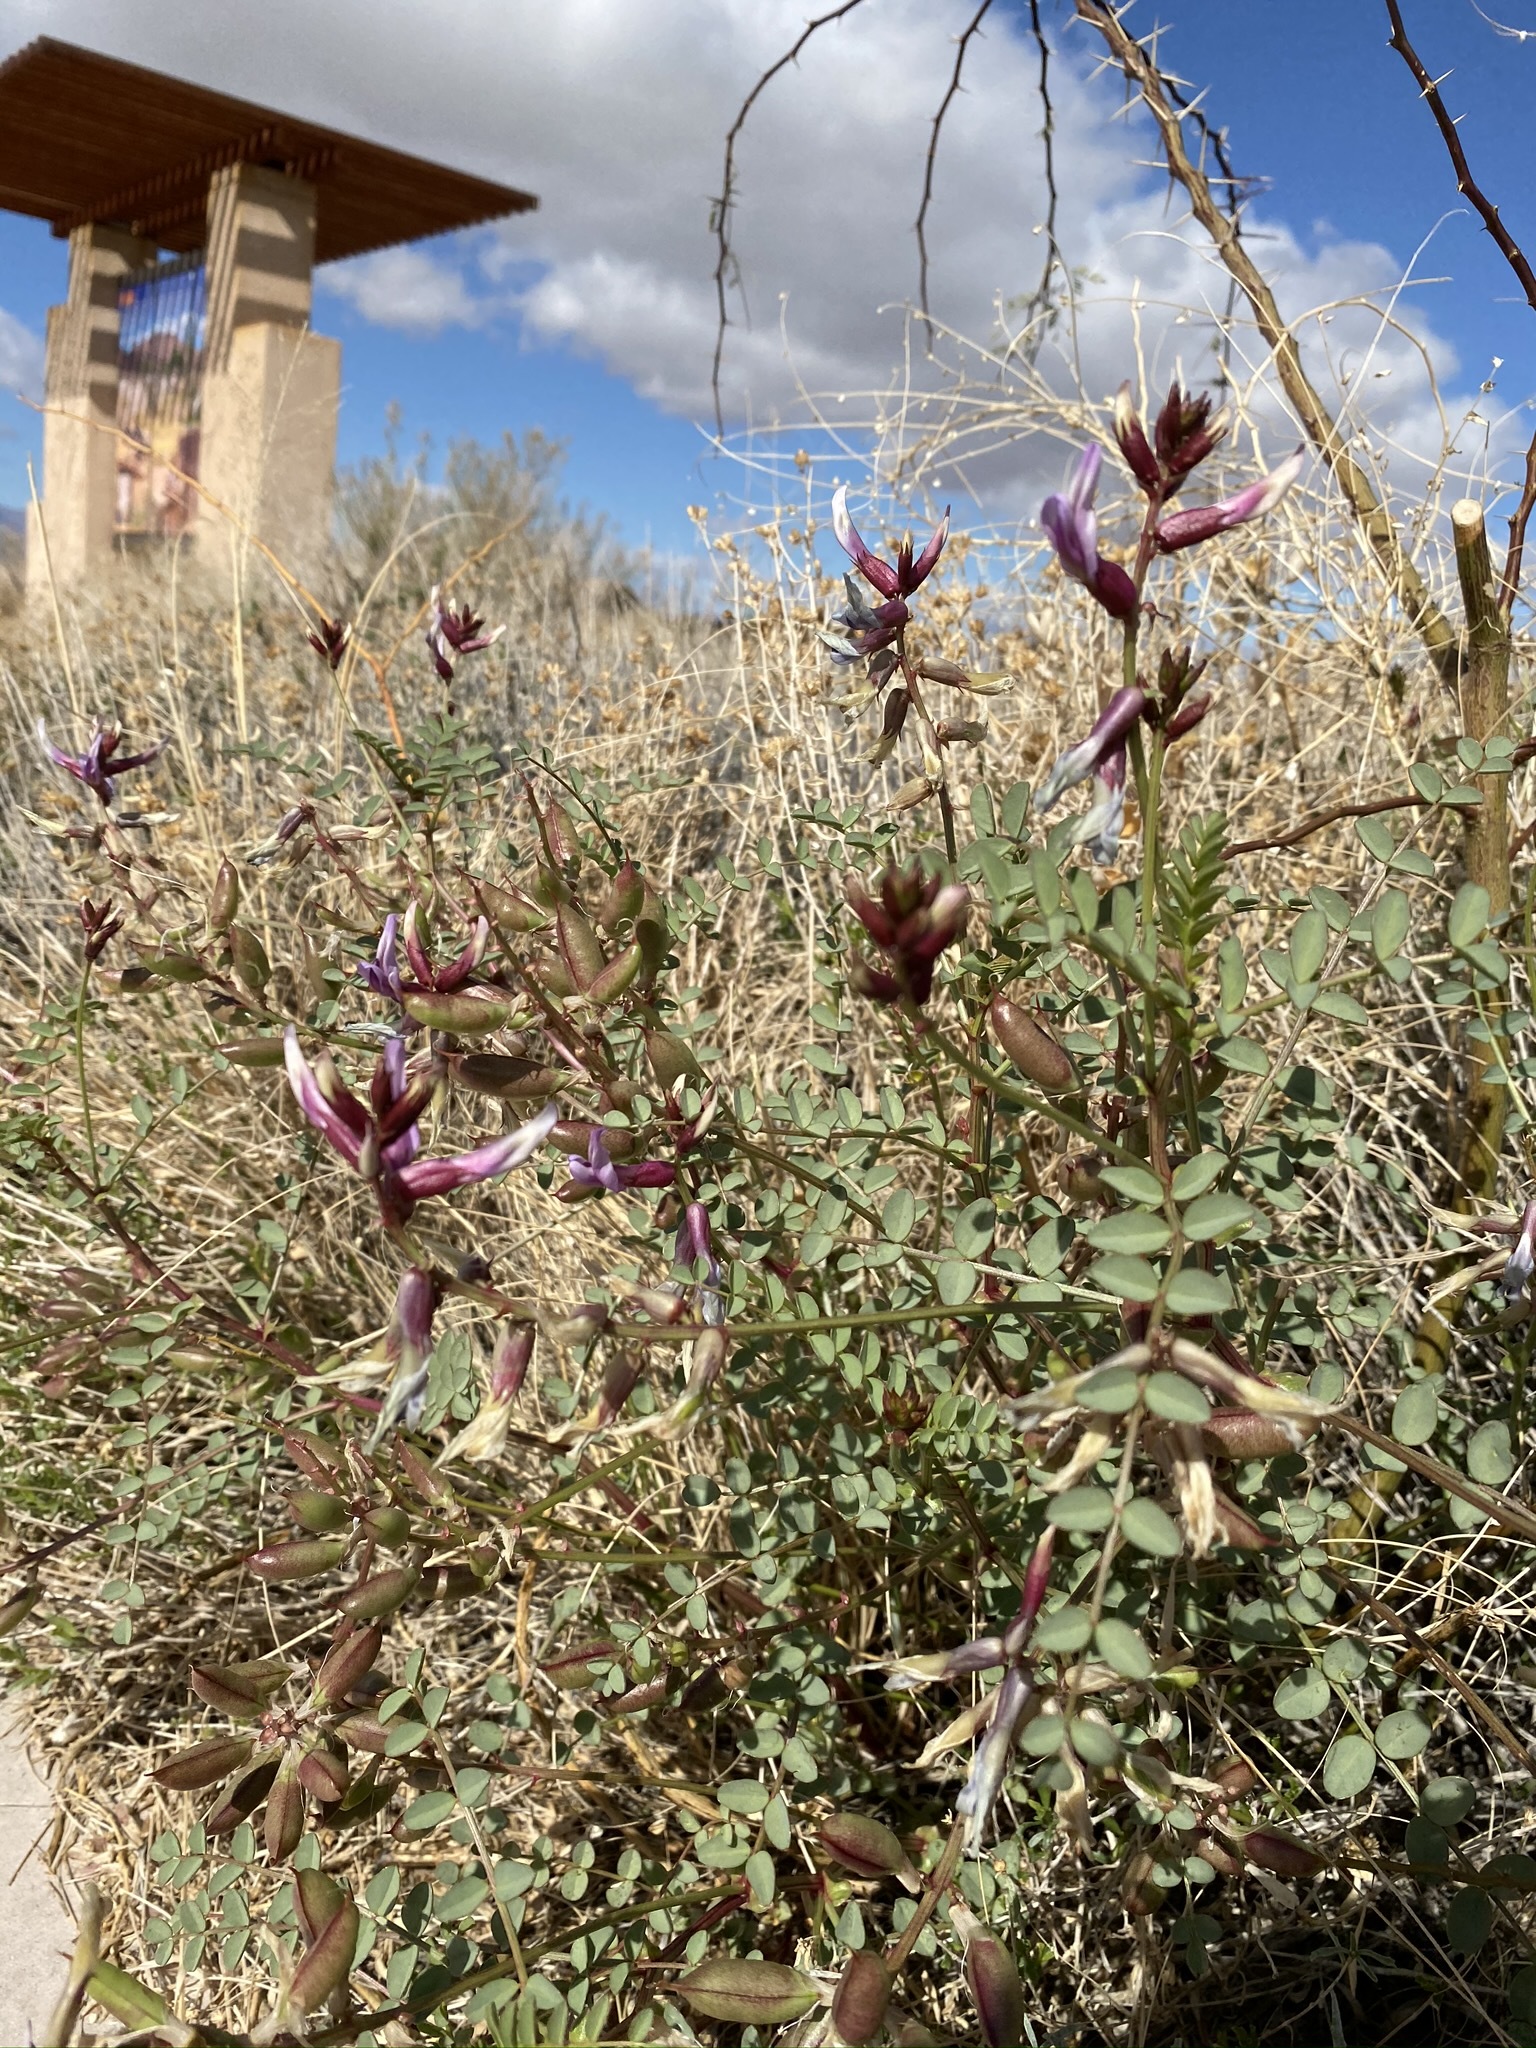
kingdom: Plantae
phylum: Tracheophyta
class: Magnoliopsida
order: Fabales
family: Fabaceae
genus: Astragalus
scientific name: Astragalus preussii
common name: Preuss's milk-vetch
